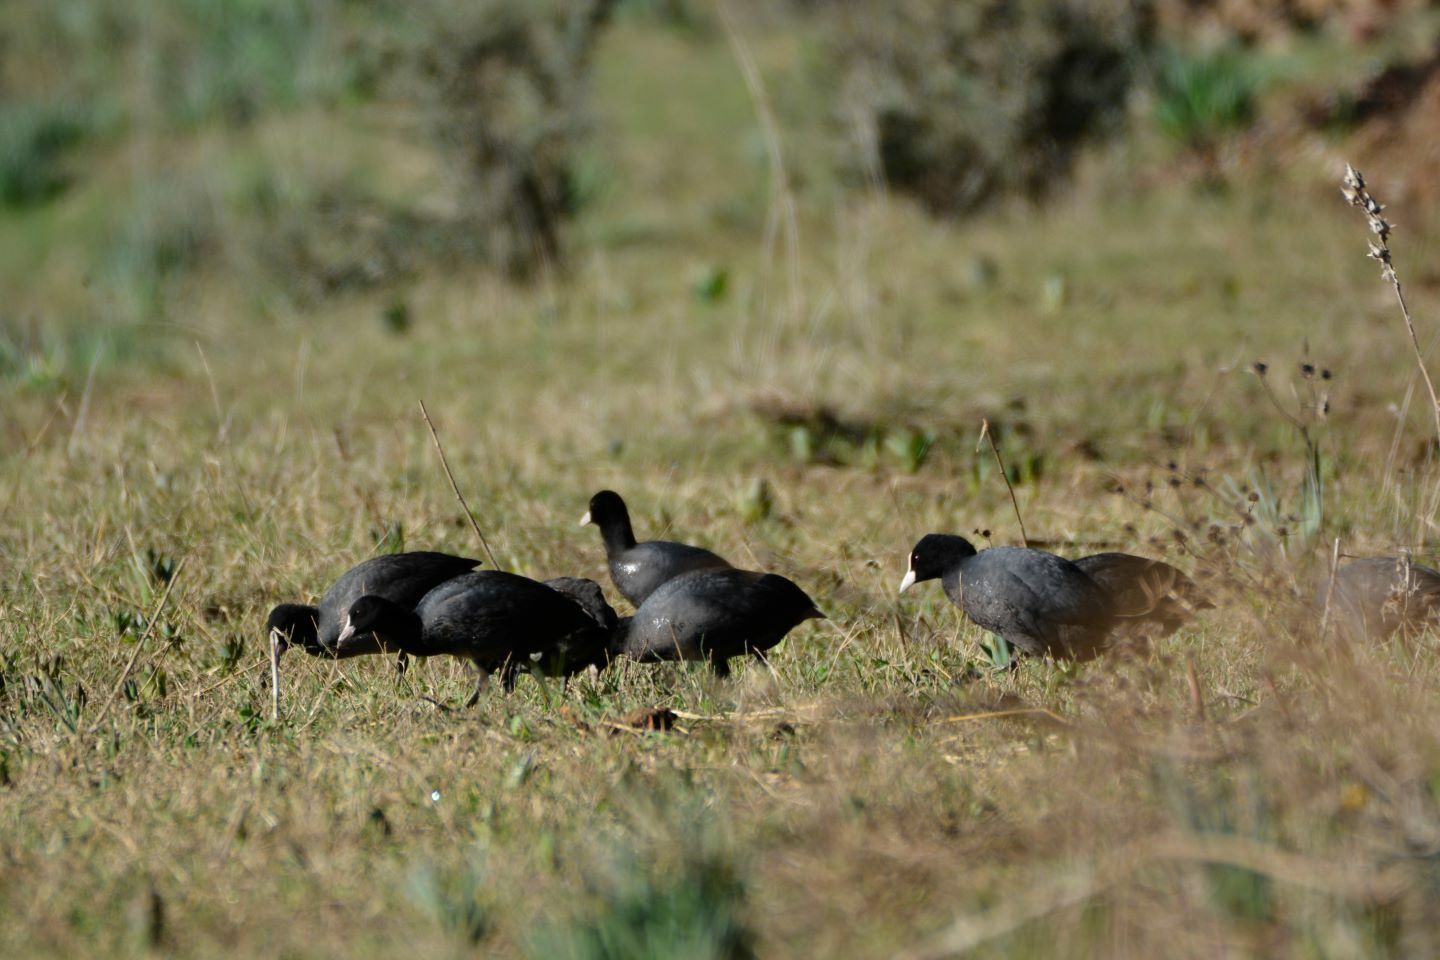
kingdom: Animalia
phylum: Chordata
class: Aves
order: Gruiformes
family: Rallidae
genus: Fulica
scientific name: Fulica atra
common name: Eurasian coot
